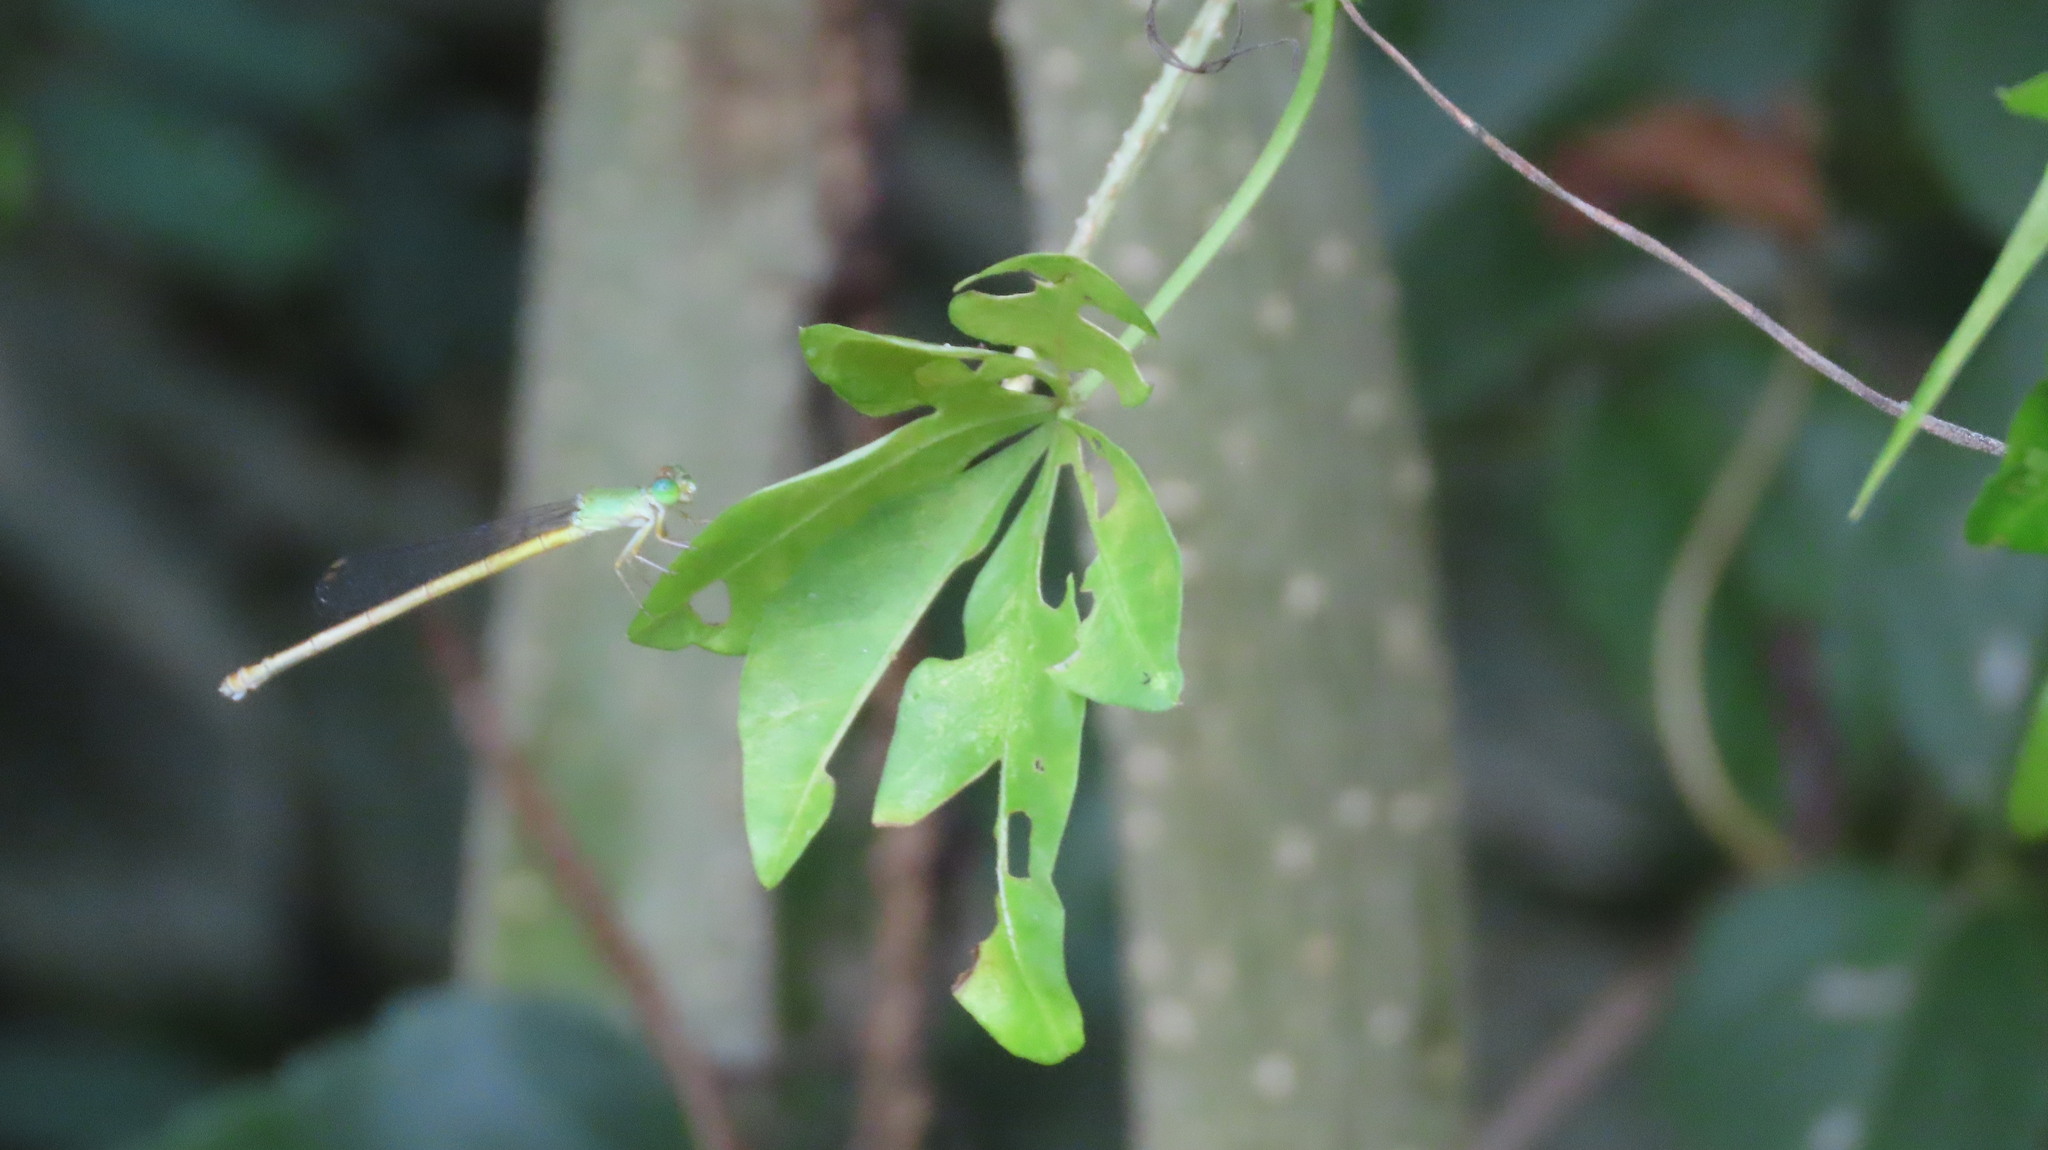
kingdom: Animalia
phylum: Arthropoda
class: Insecta
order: Odonata
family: Coenagrionidae
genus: Ceriagrion
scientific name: Ceriagrion coromandelianum
